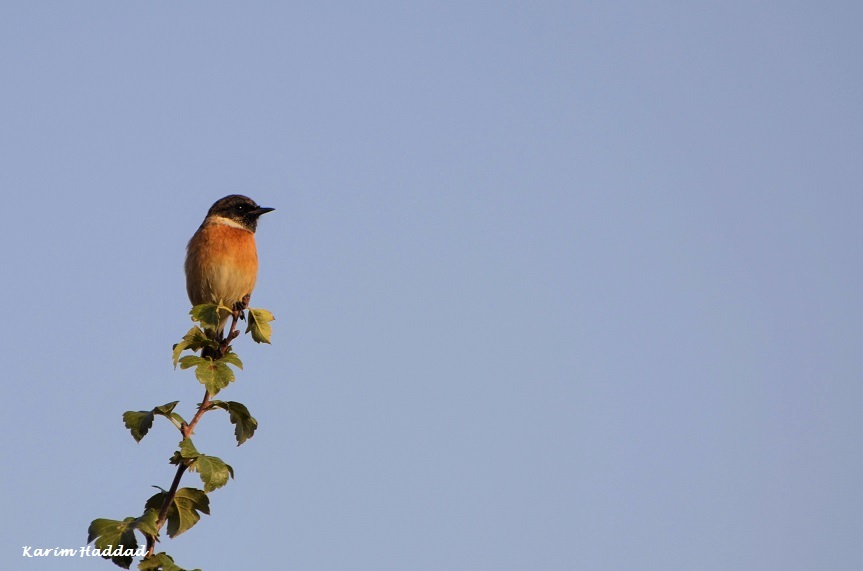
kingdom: Animalia
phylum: Chordata
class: Aves
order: Passeriformes
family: Muscicapidae
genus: Saxicola
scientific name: Saxicola rubicola
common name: European stonechat
